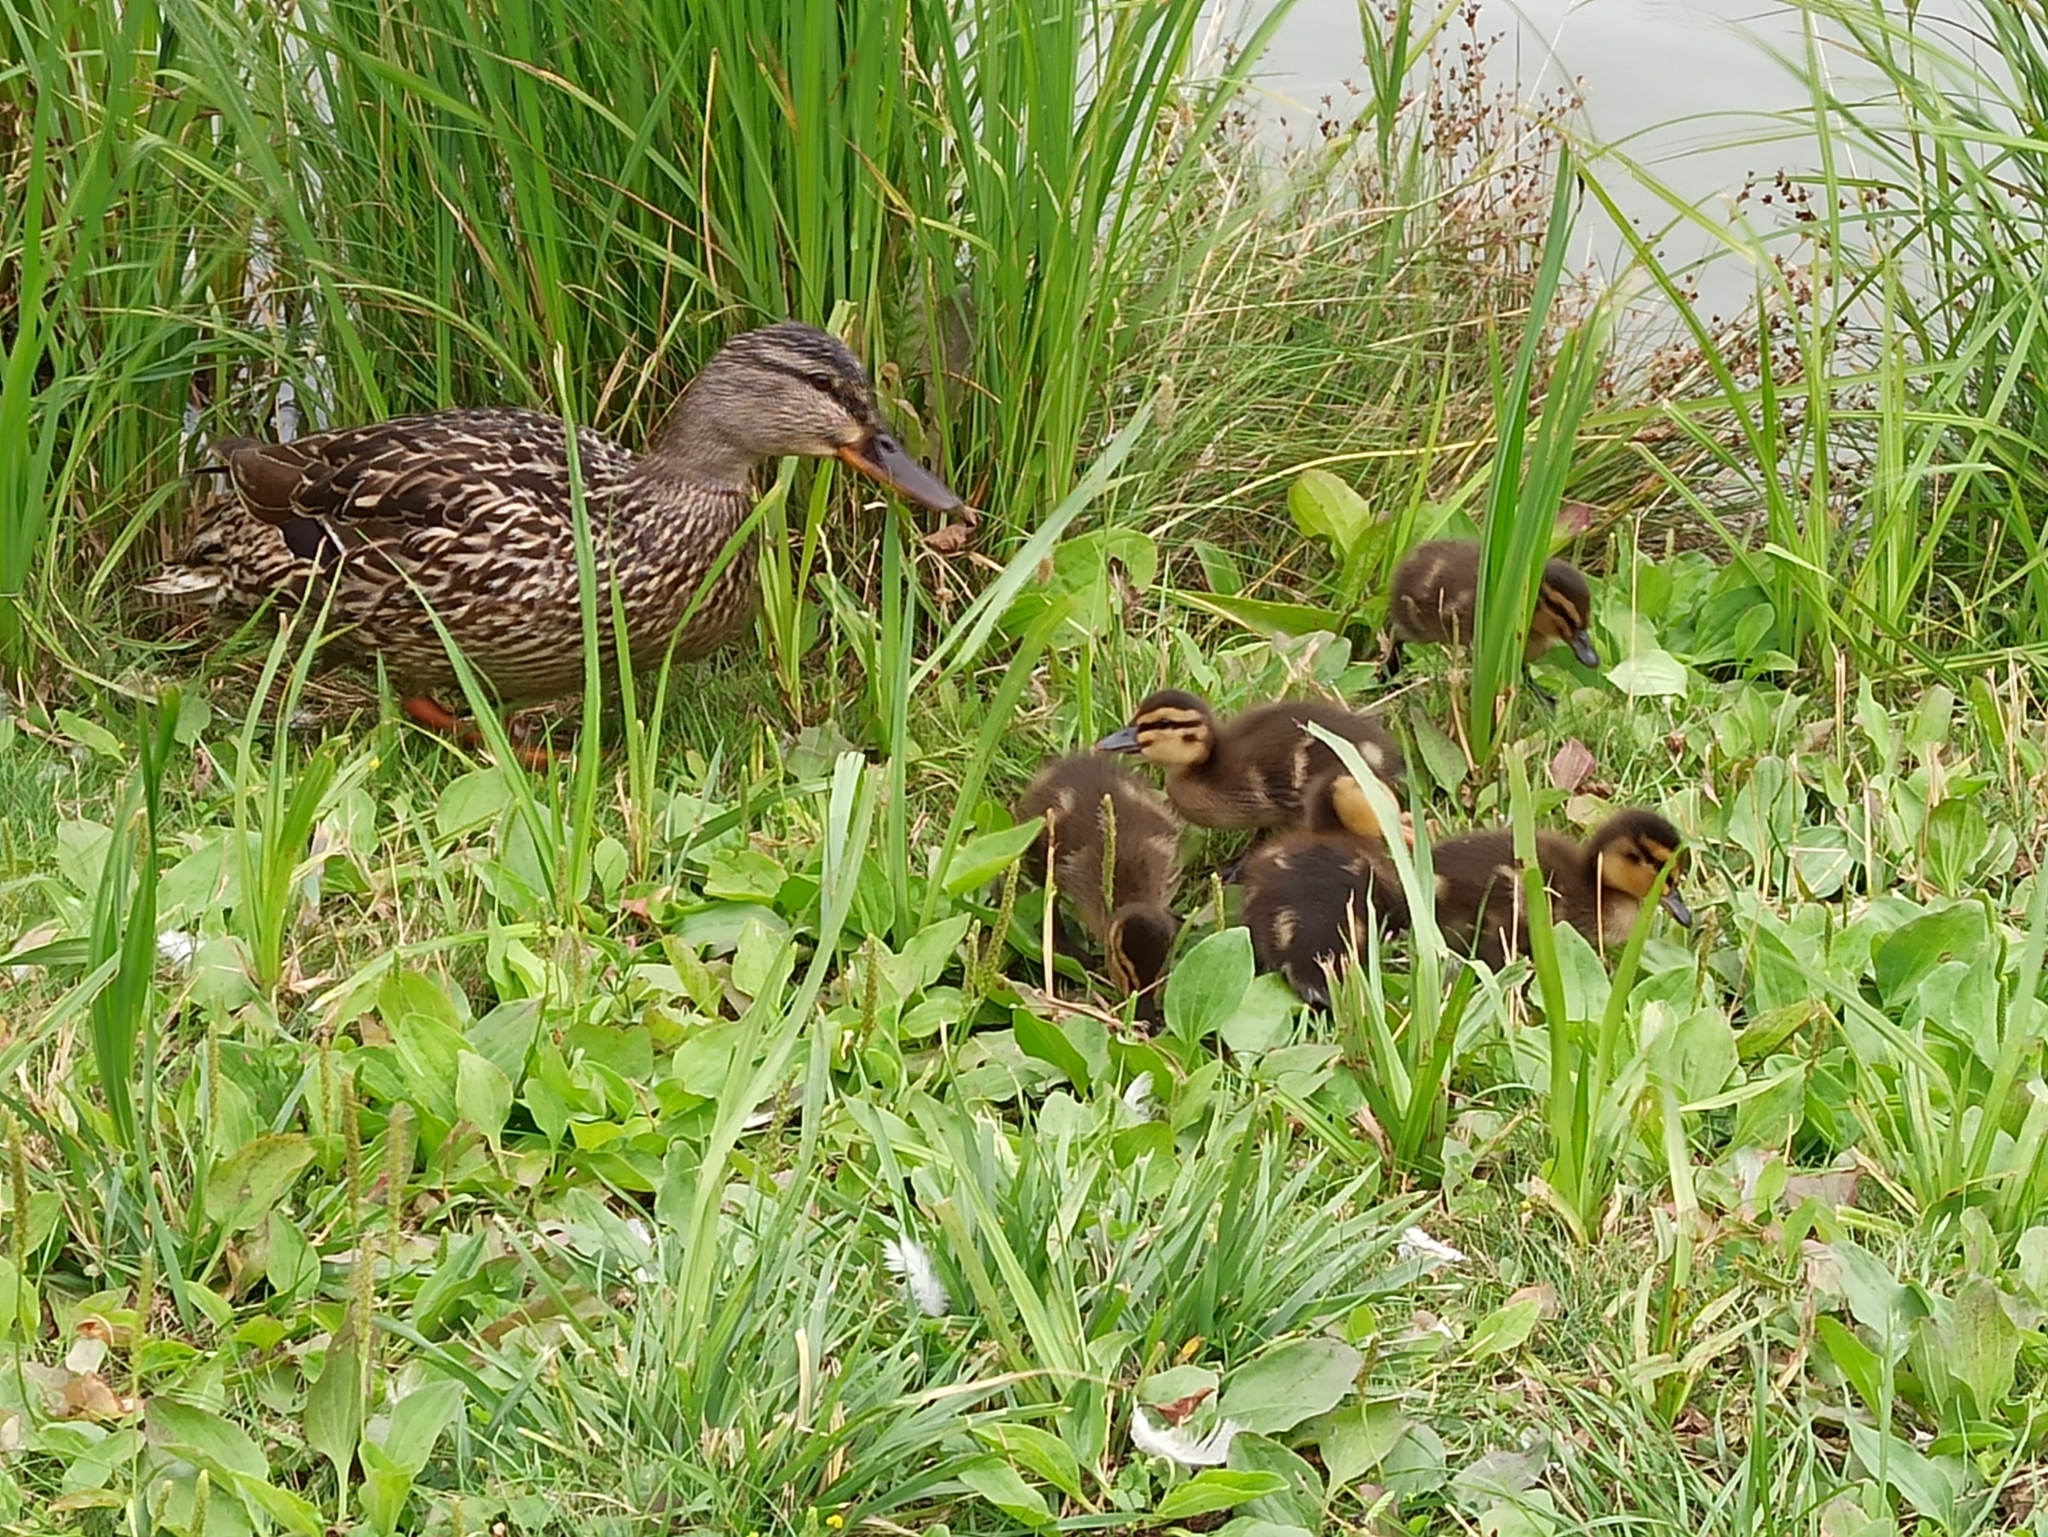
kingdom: Animalia
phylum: Chordata
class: Aves
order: Anseriformes
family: Anatidae
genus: Anas
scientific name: Anas platyrhynchos
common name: Mallard
